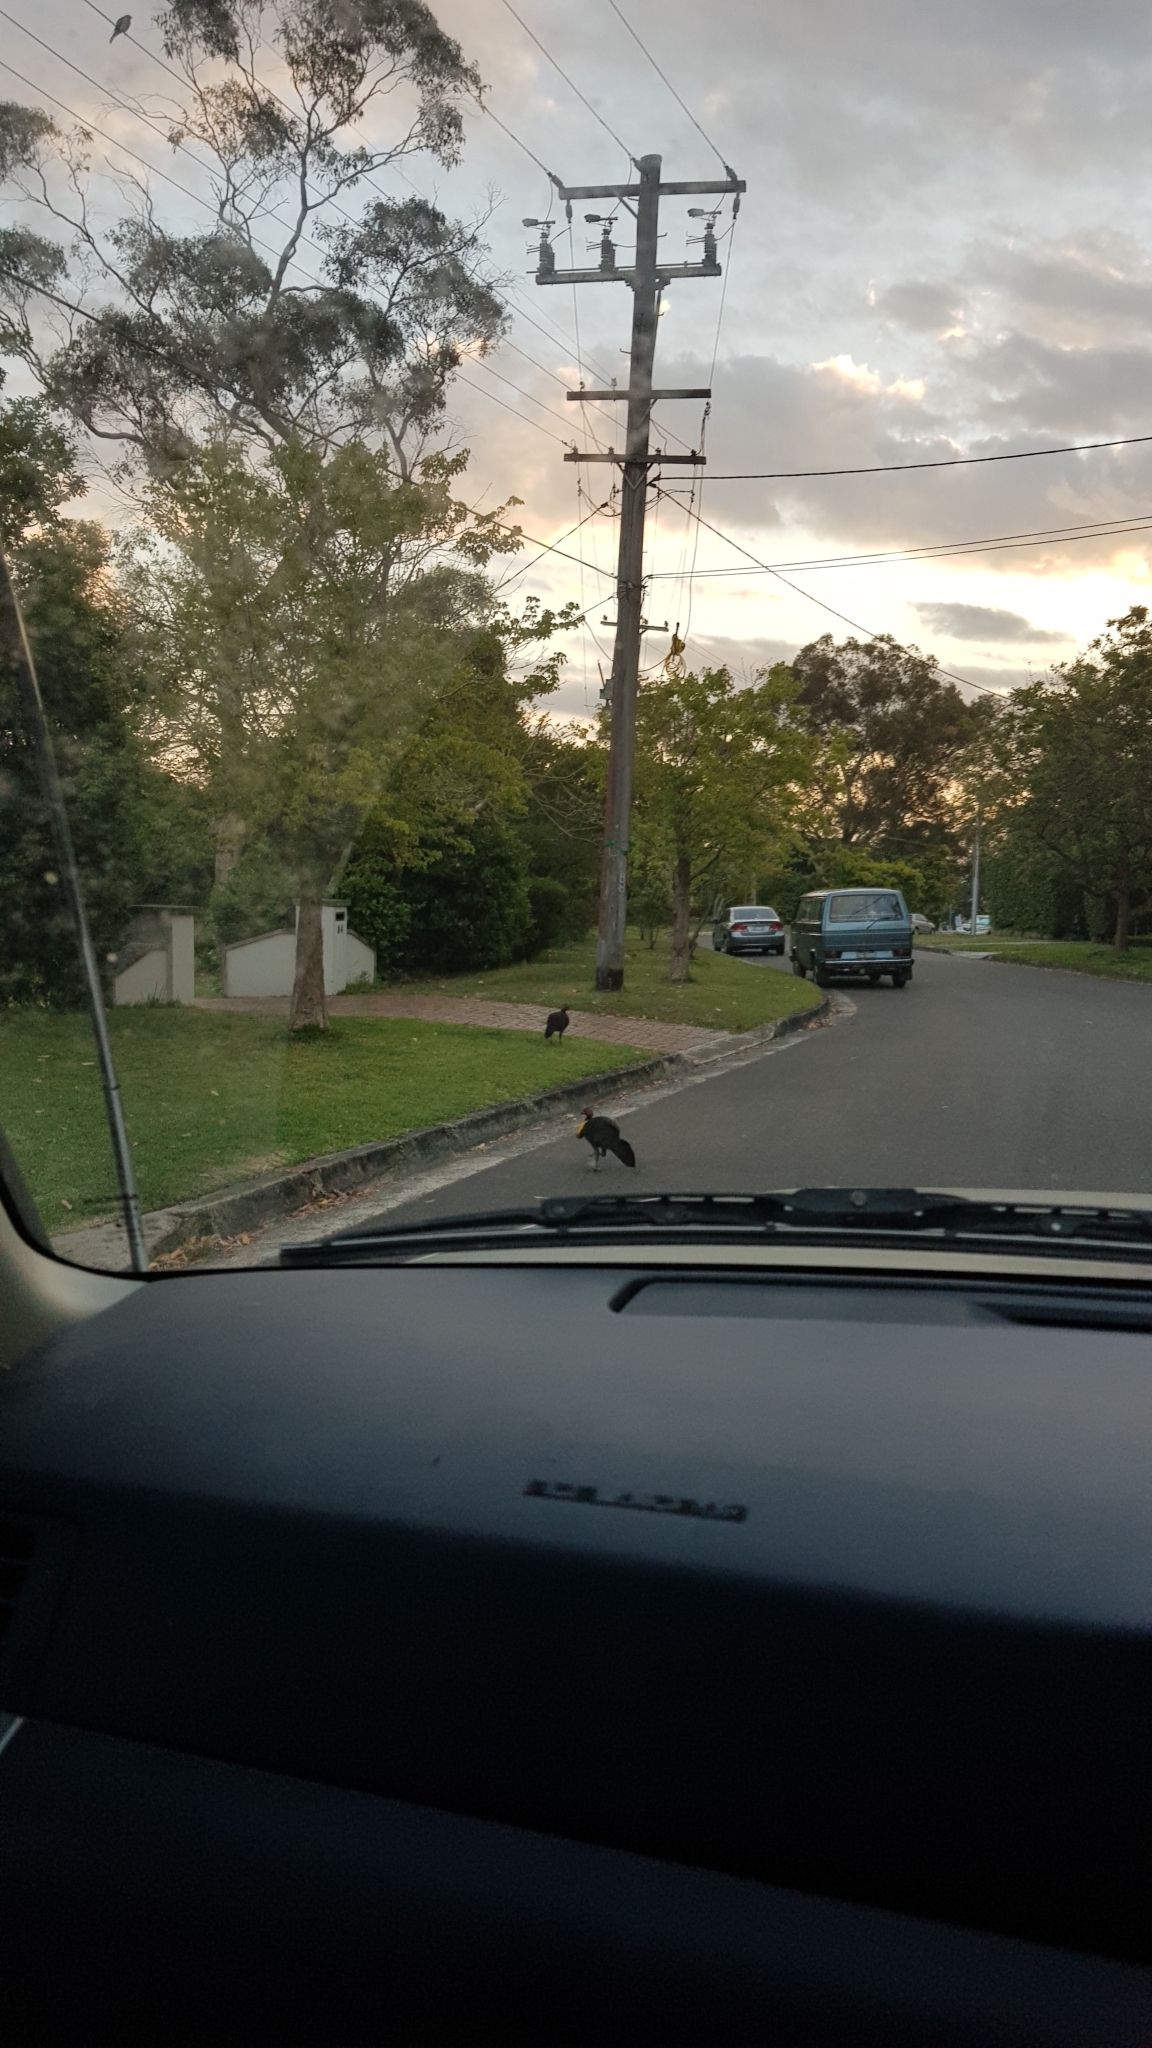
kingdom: Animalia
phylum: Chordata
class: Aves
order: Galliformes
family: Megapodiidae
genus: Alectura
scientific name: Alectura lathami
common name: Australian brushturkey
